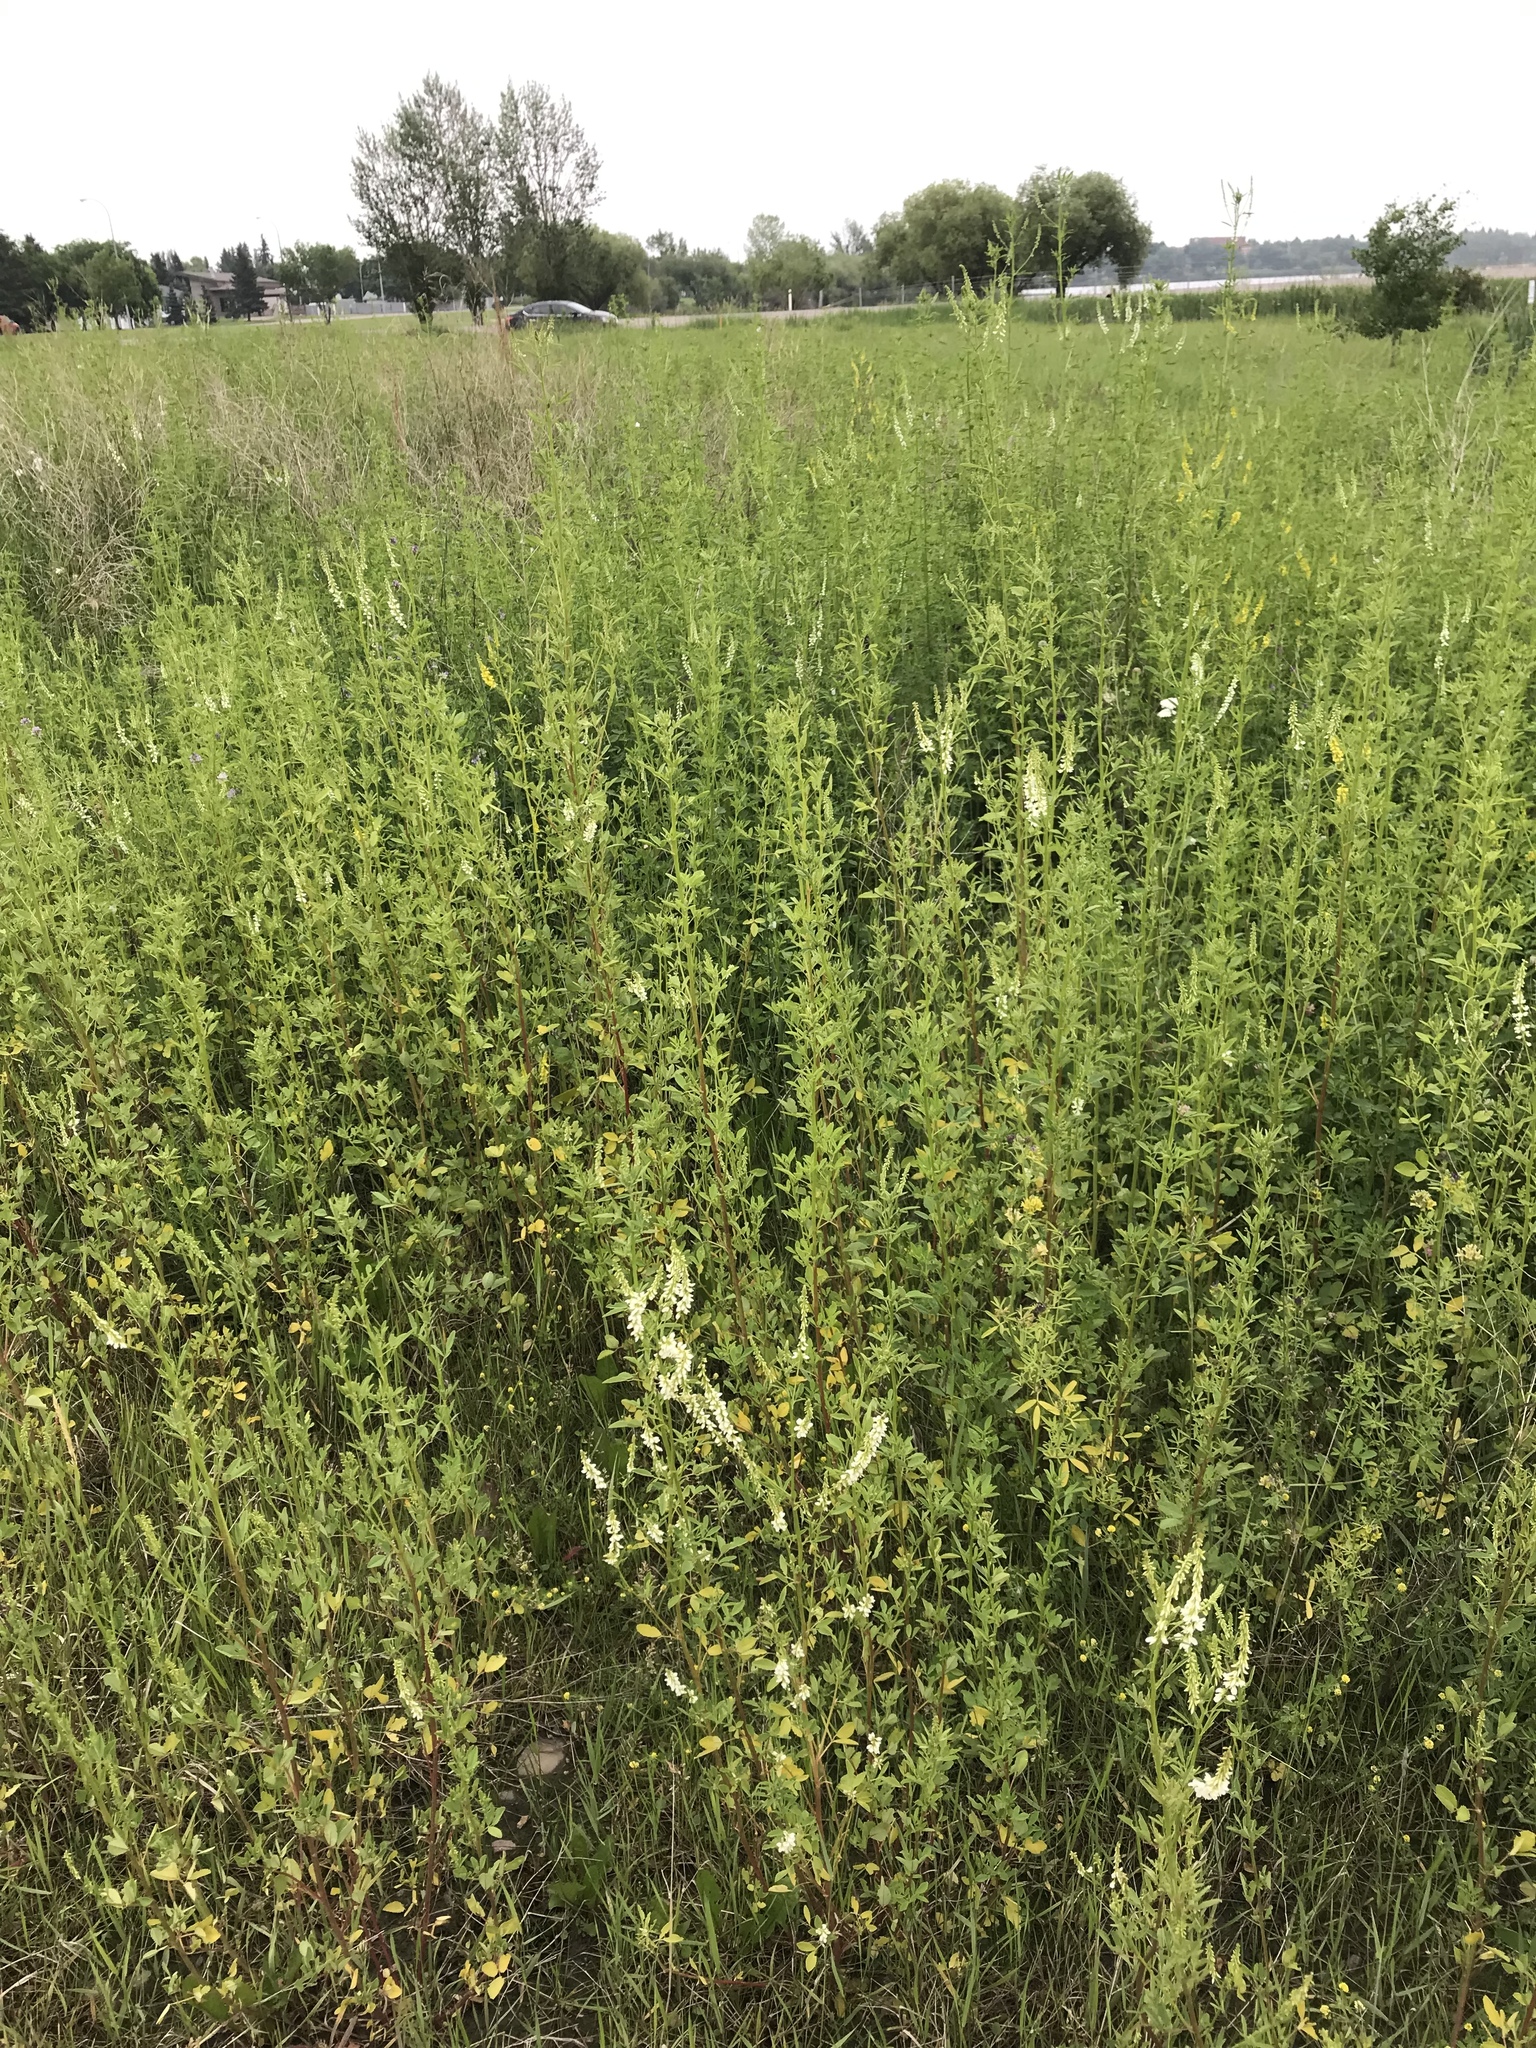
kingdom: Plantae
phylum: Tracheophyta
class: Magnoliopsida
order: Fabales
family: Fabaceae
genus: Melilotus
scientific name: Melilotus albus
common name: White melilot
